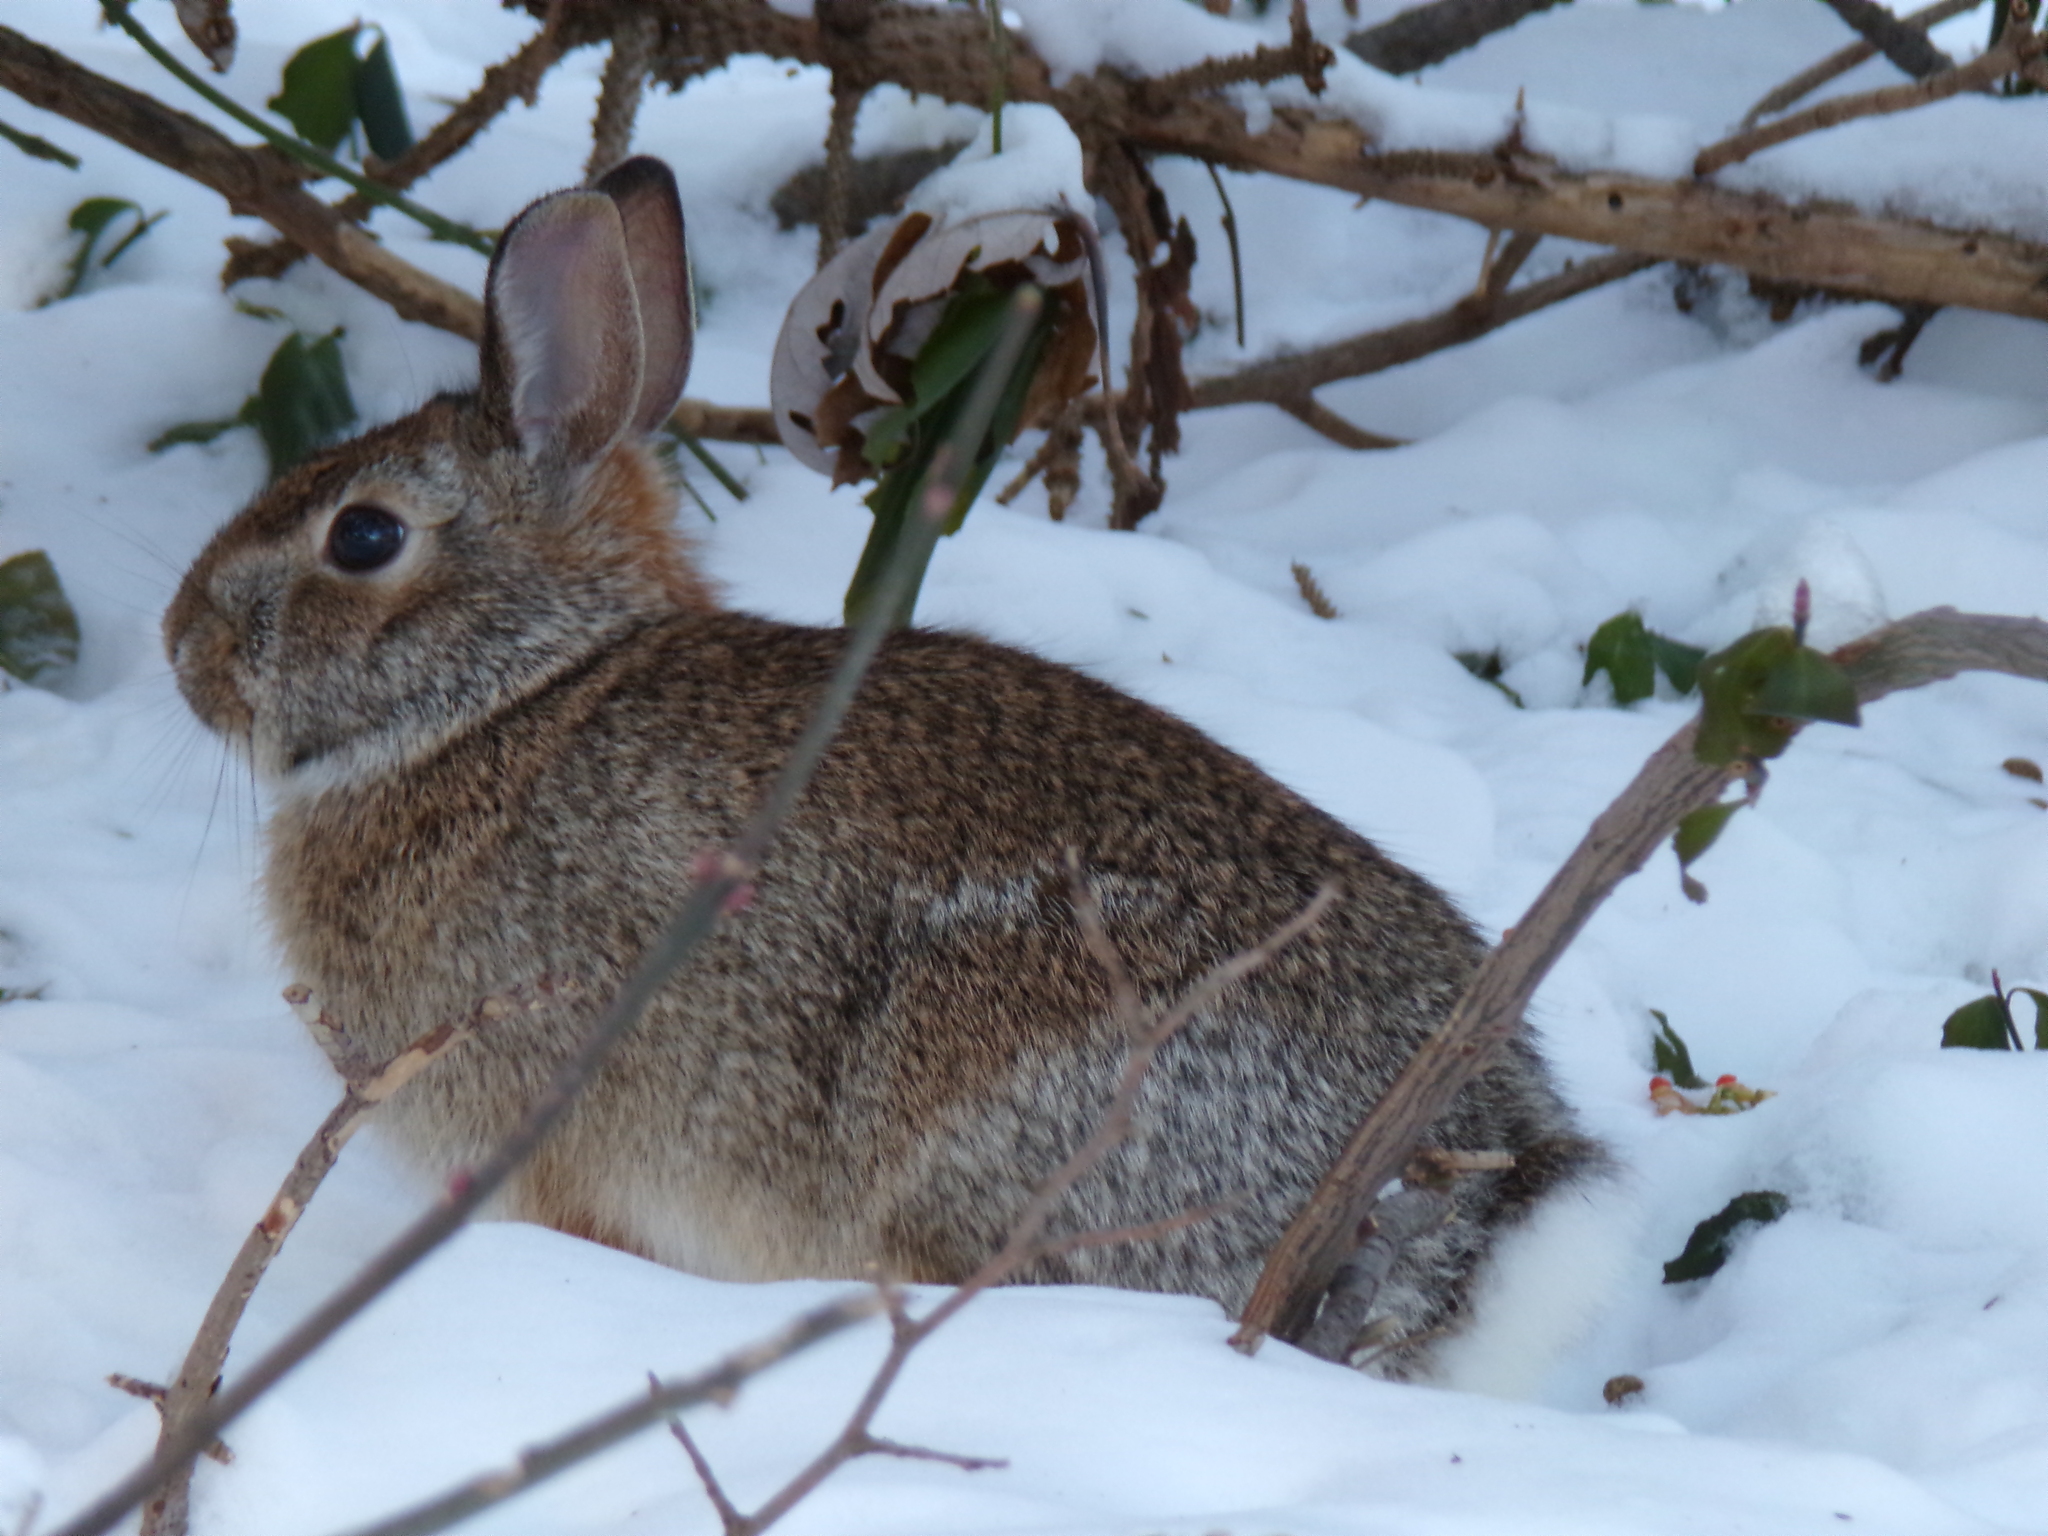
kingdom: Animalia
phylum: Chordata
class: Mammalia
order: Lagomorpha
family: Leporidae
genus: Sylvilagus
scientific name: Sylvilagus floridanus
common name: Eastern cottontail
